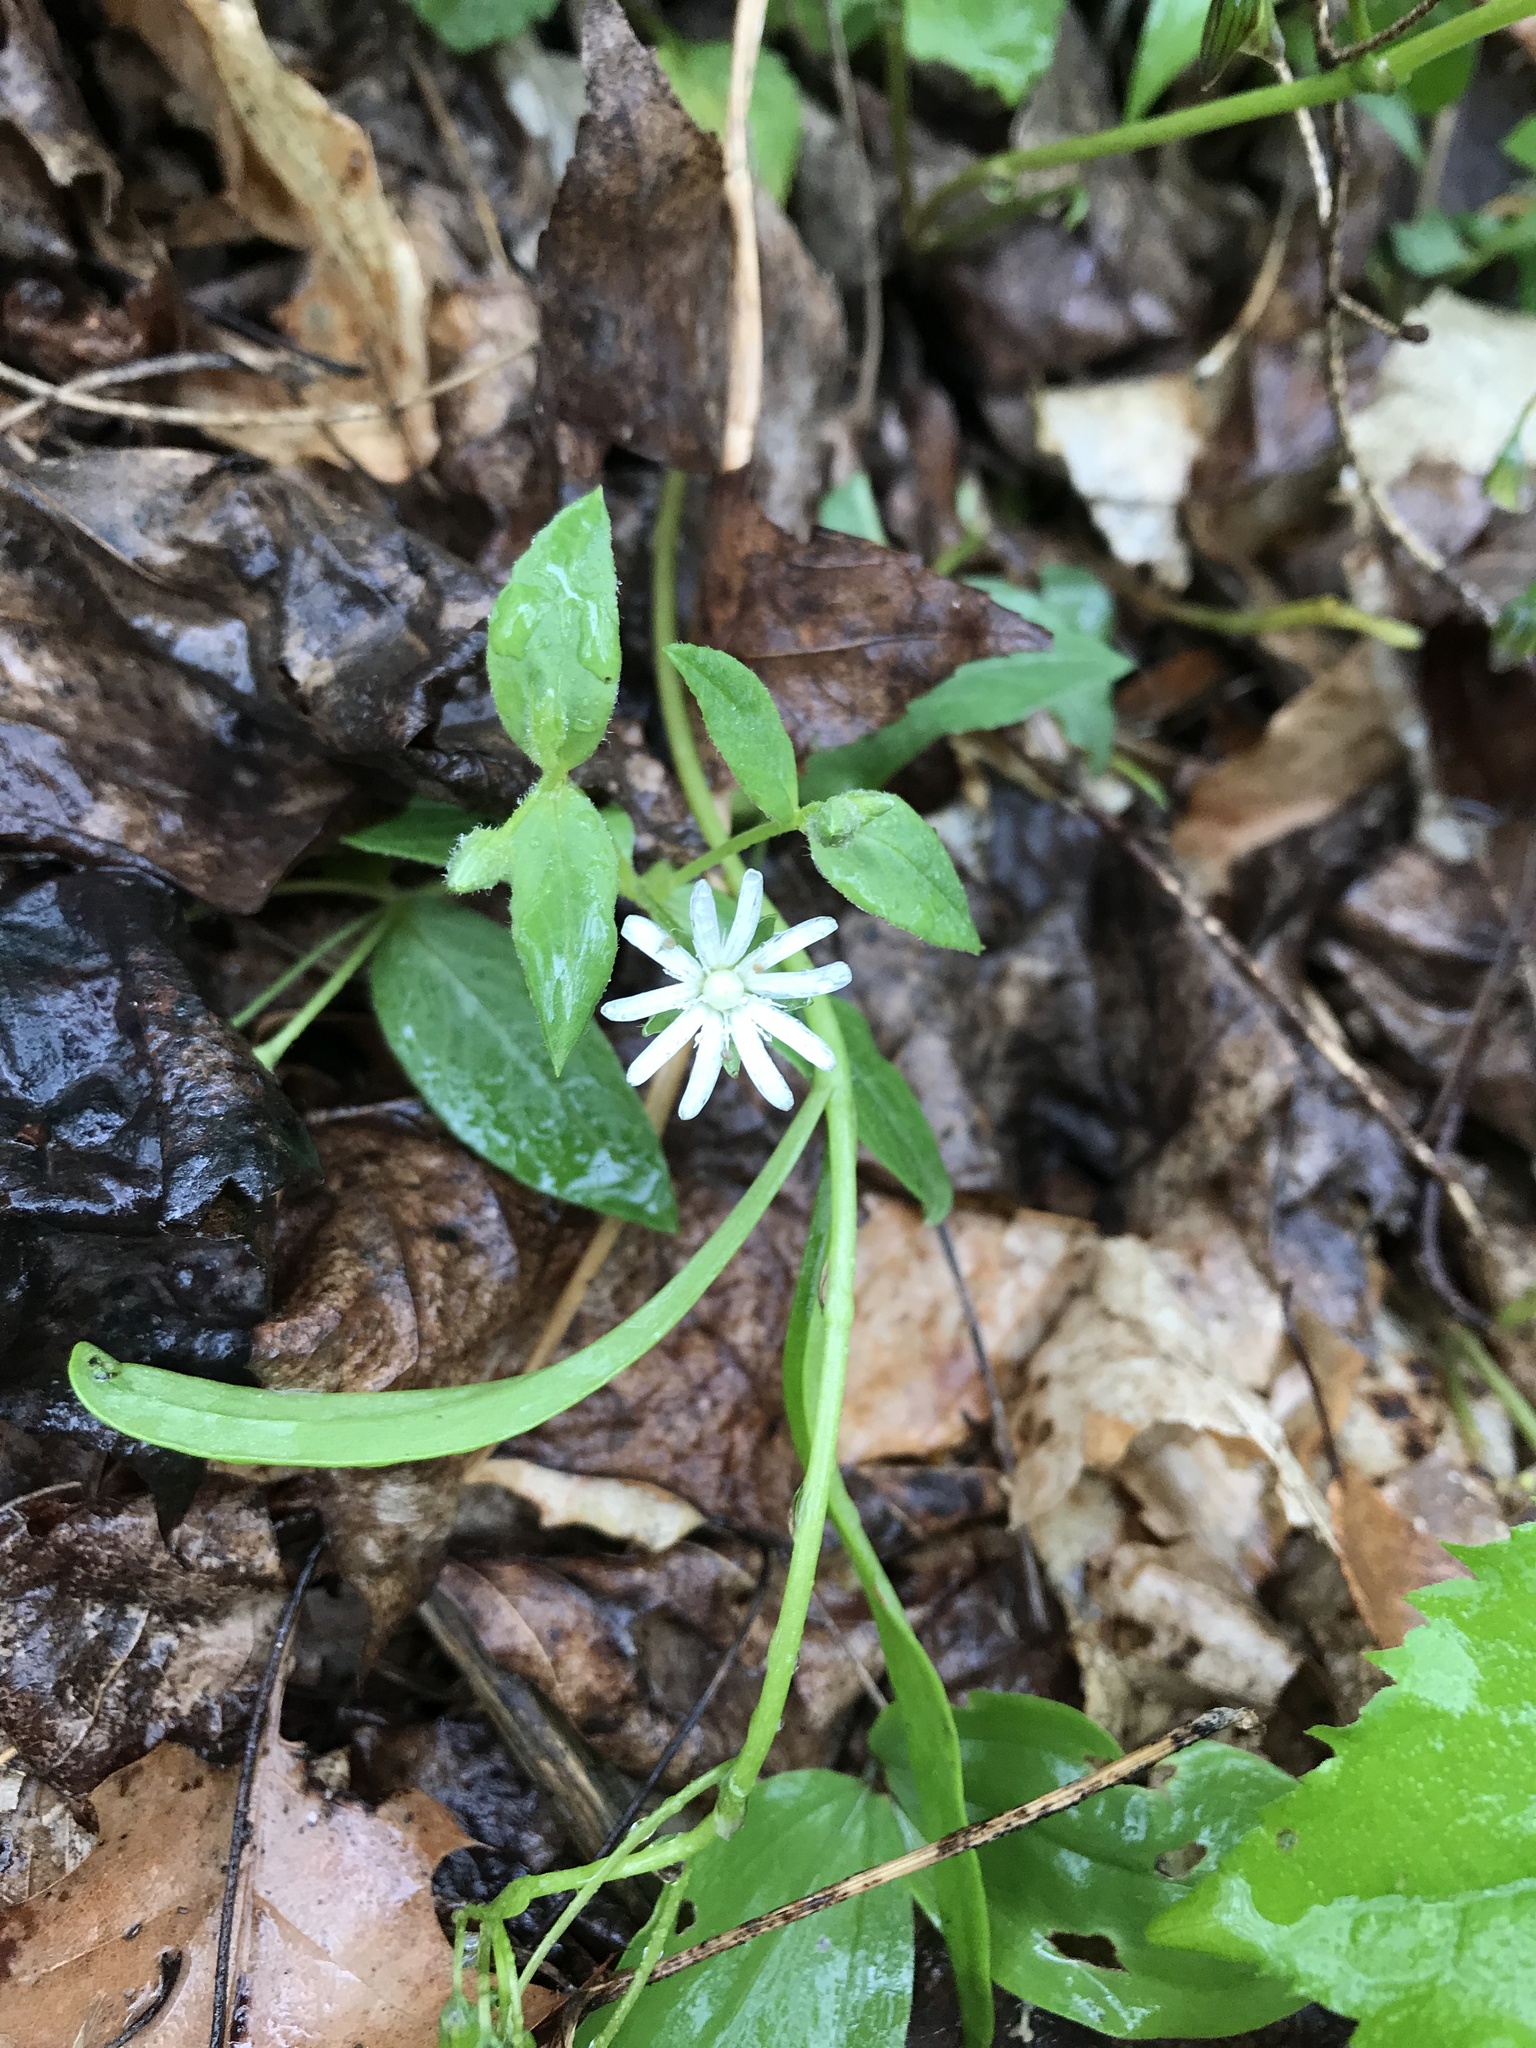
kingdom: Plantae
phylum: Tracheophyta
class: Magnoliopsida
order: Caryophyllales
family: Caryophyllaceae
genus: Stellaria
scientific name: Stellaria pubera
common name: Star chickweed
